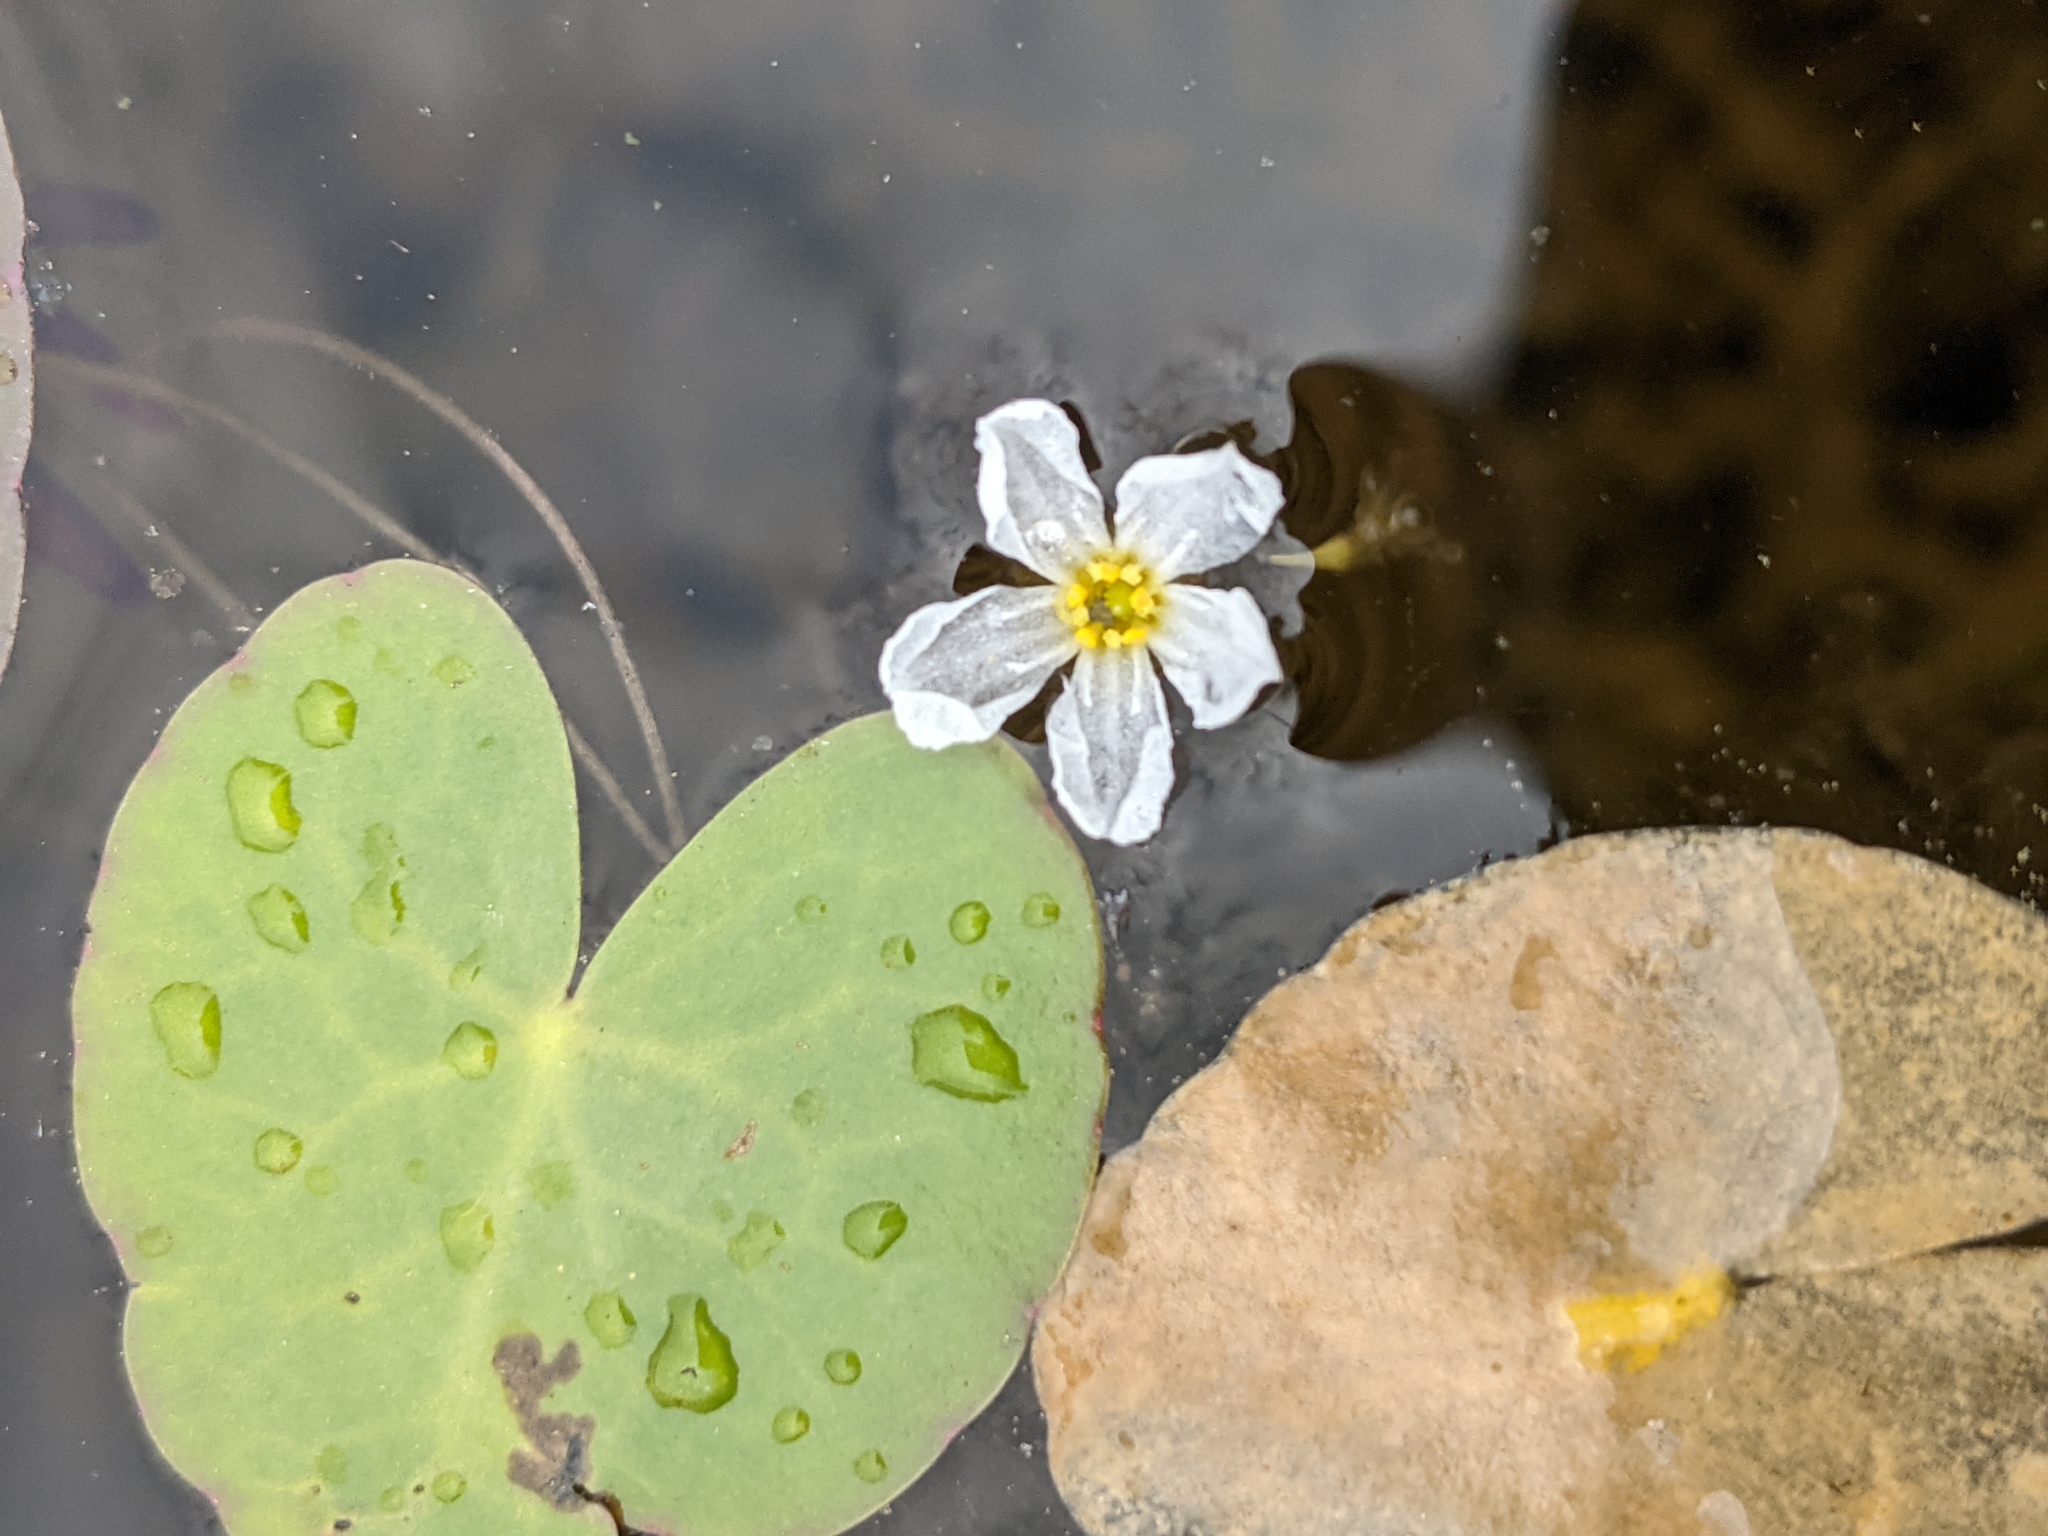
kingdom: Plantae
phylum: Tracheophyta
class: Magnoliopsida
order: Asterales
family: Menyanthaceae
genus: Nymphoides
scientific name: Nymphoides cordata
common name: Eight-angled floatingheart
